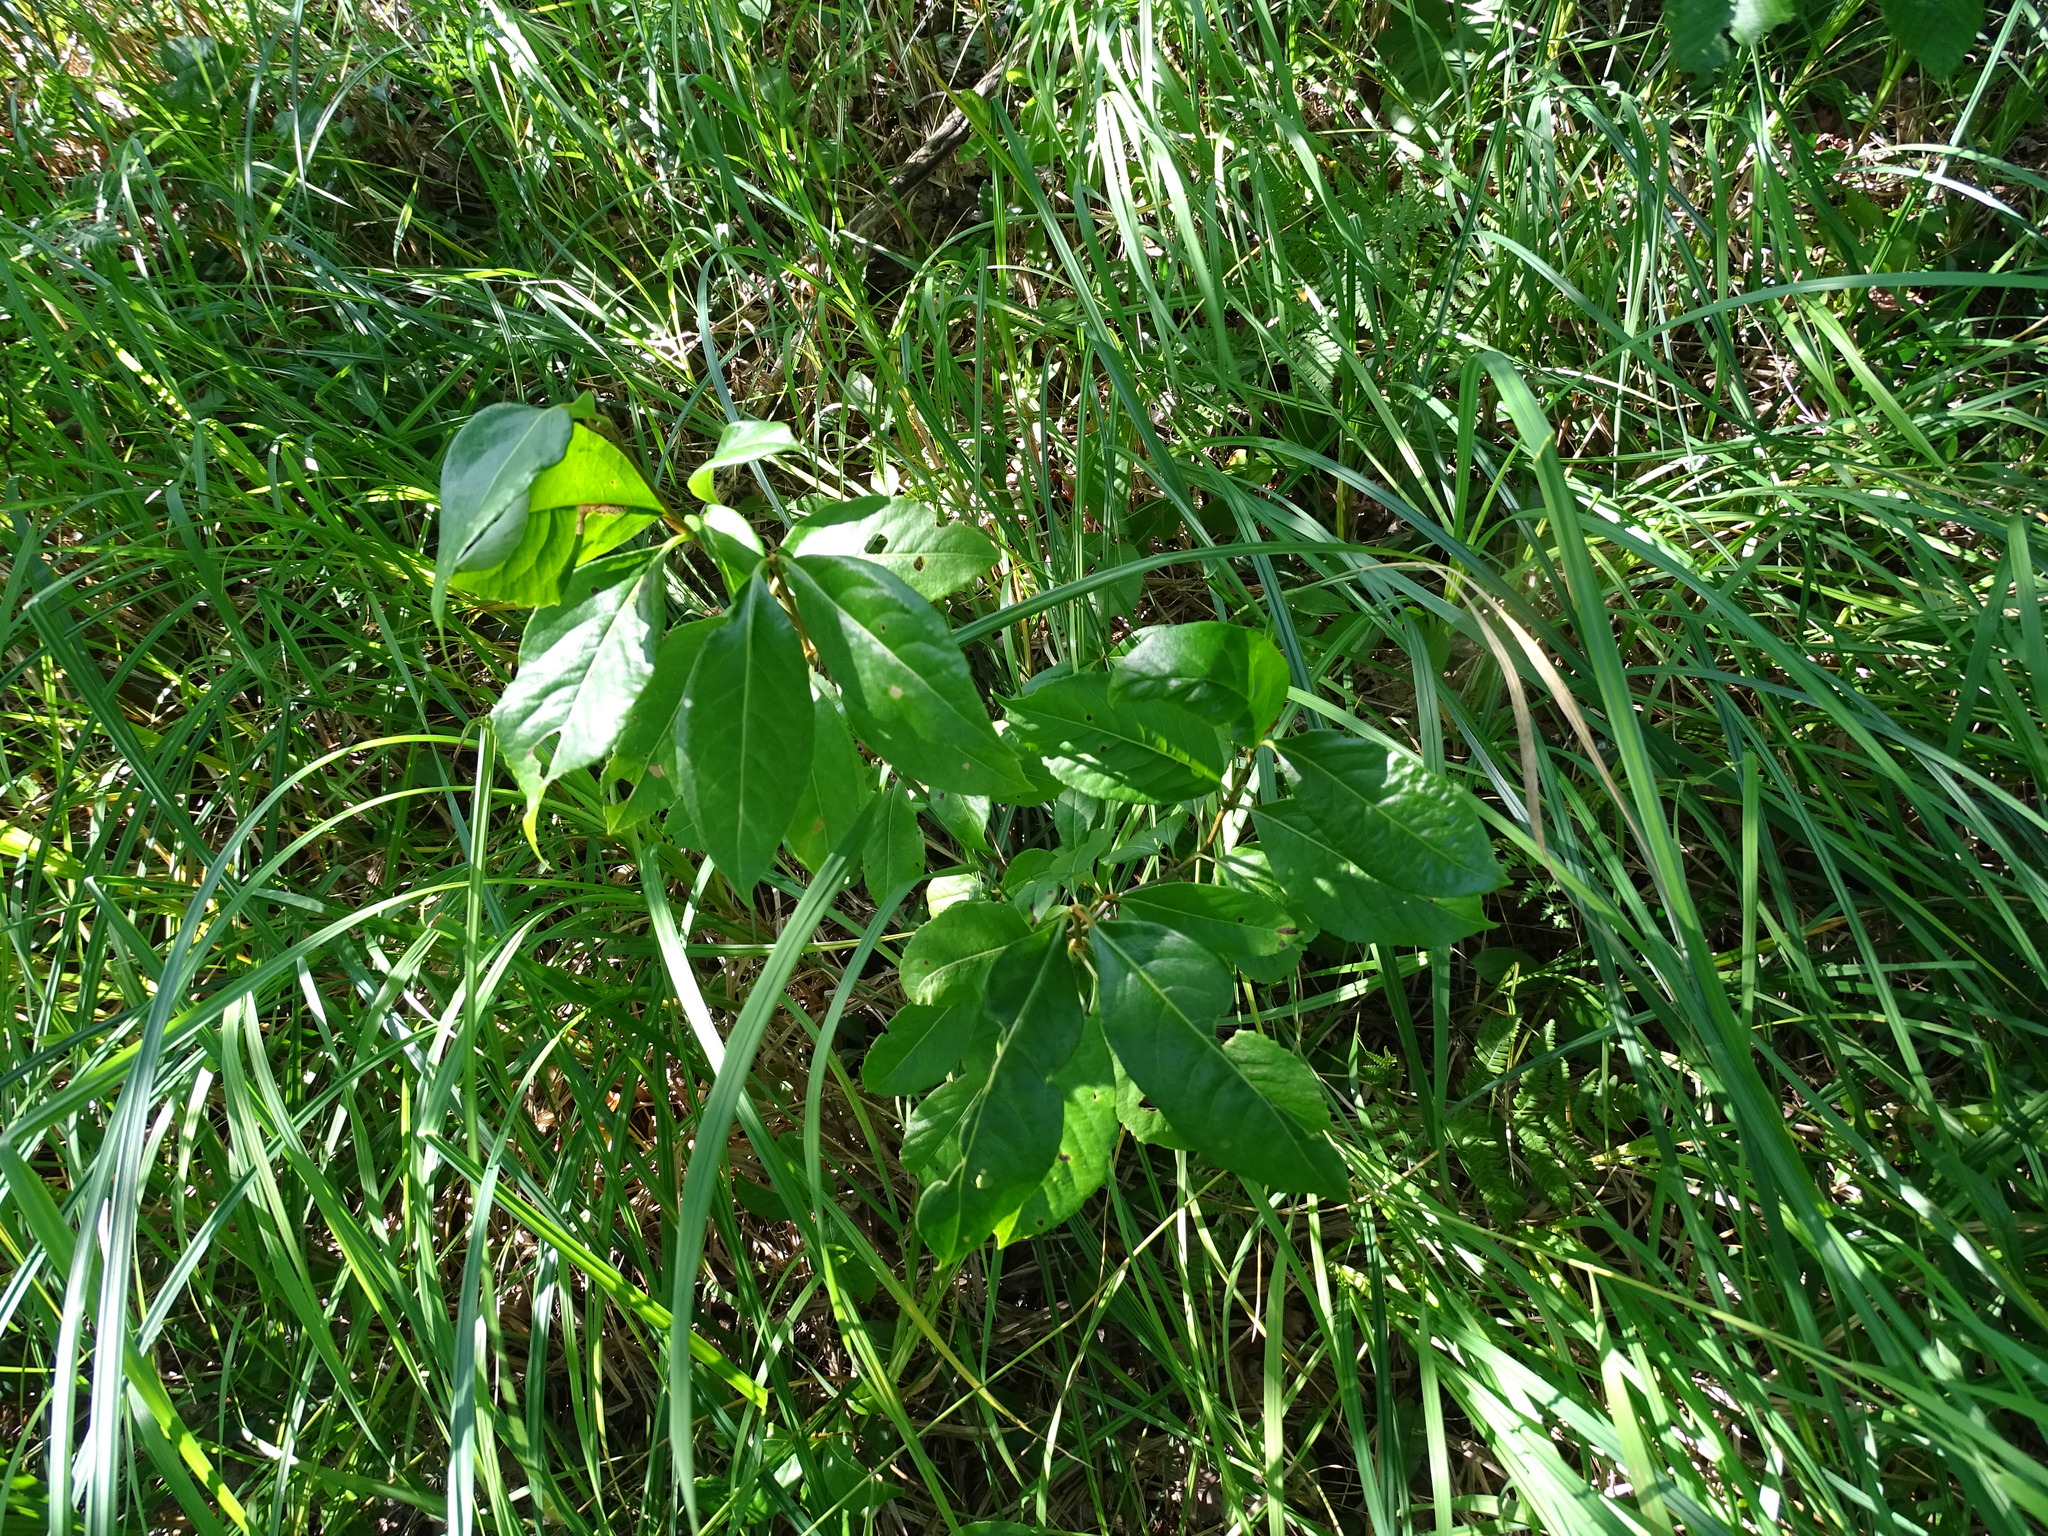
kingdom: Plantae
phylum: Tracheophyta
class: Magnoliopsida
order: Dipsacales
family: Viburnaceae
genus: Viburnum
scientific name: Viburnum cassinoides
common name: Swamp haw
